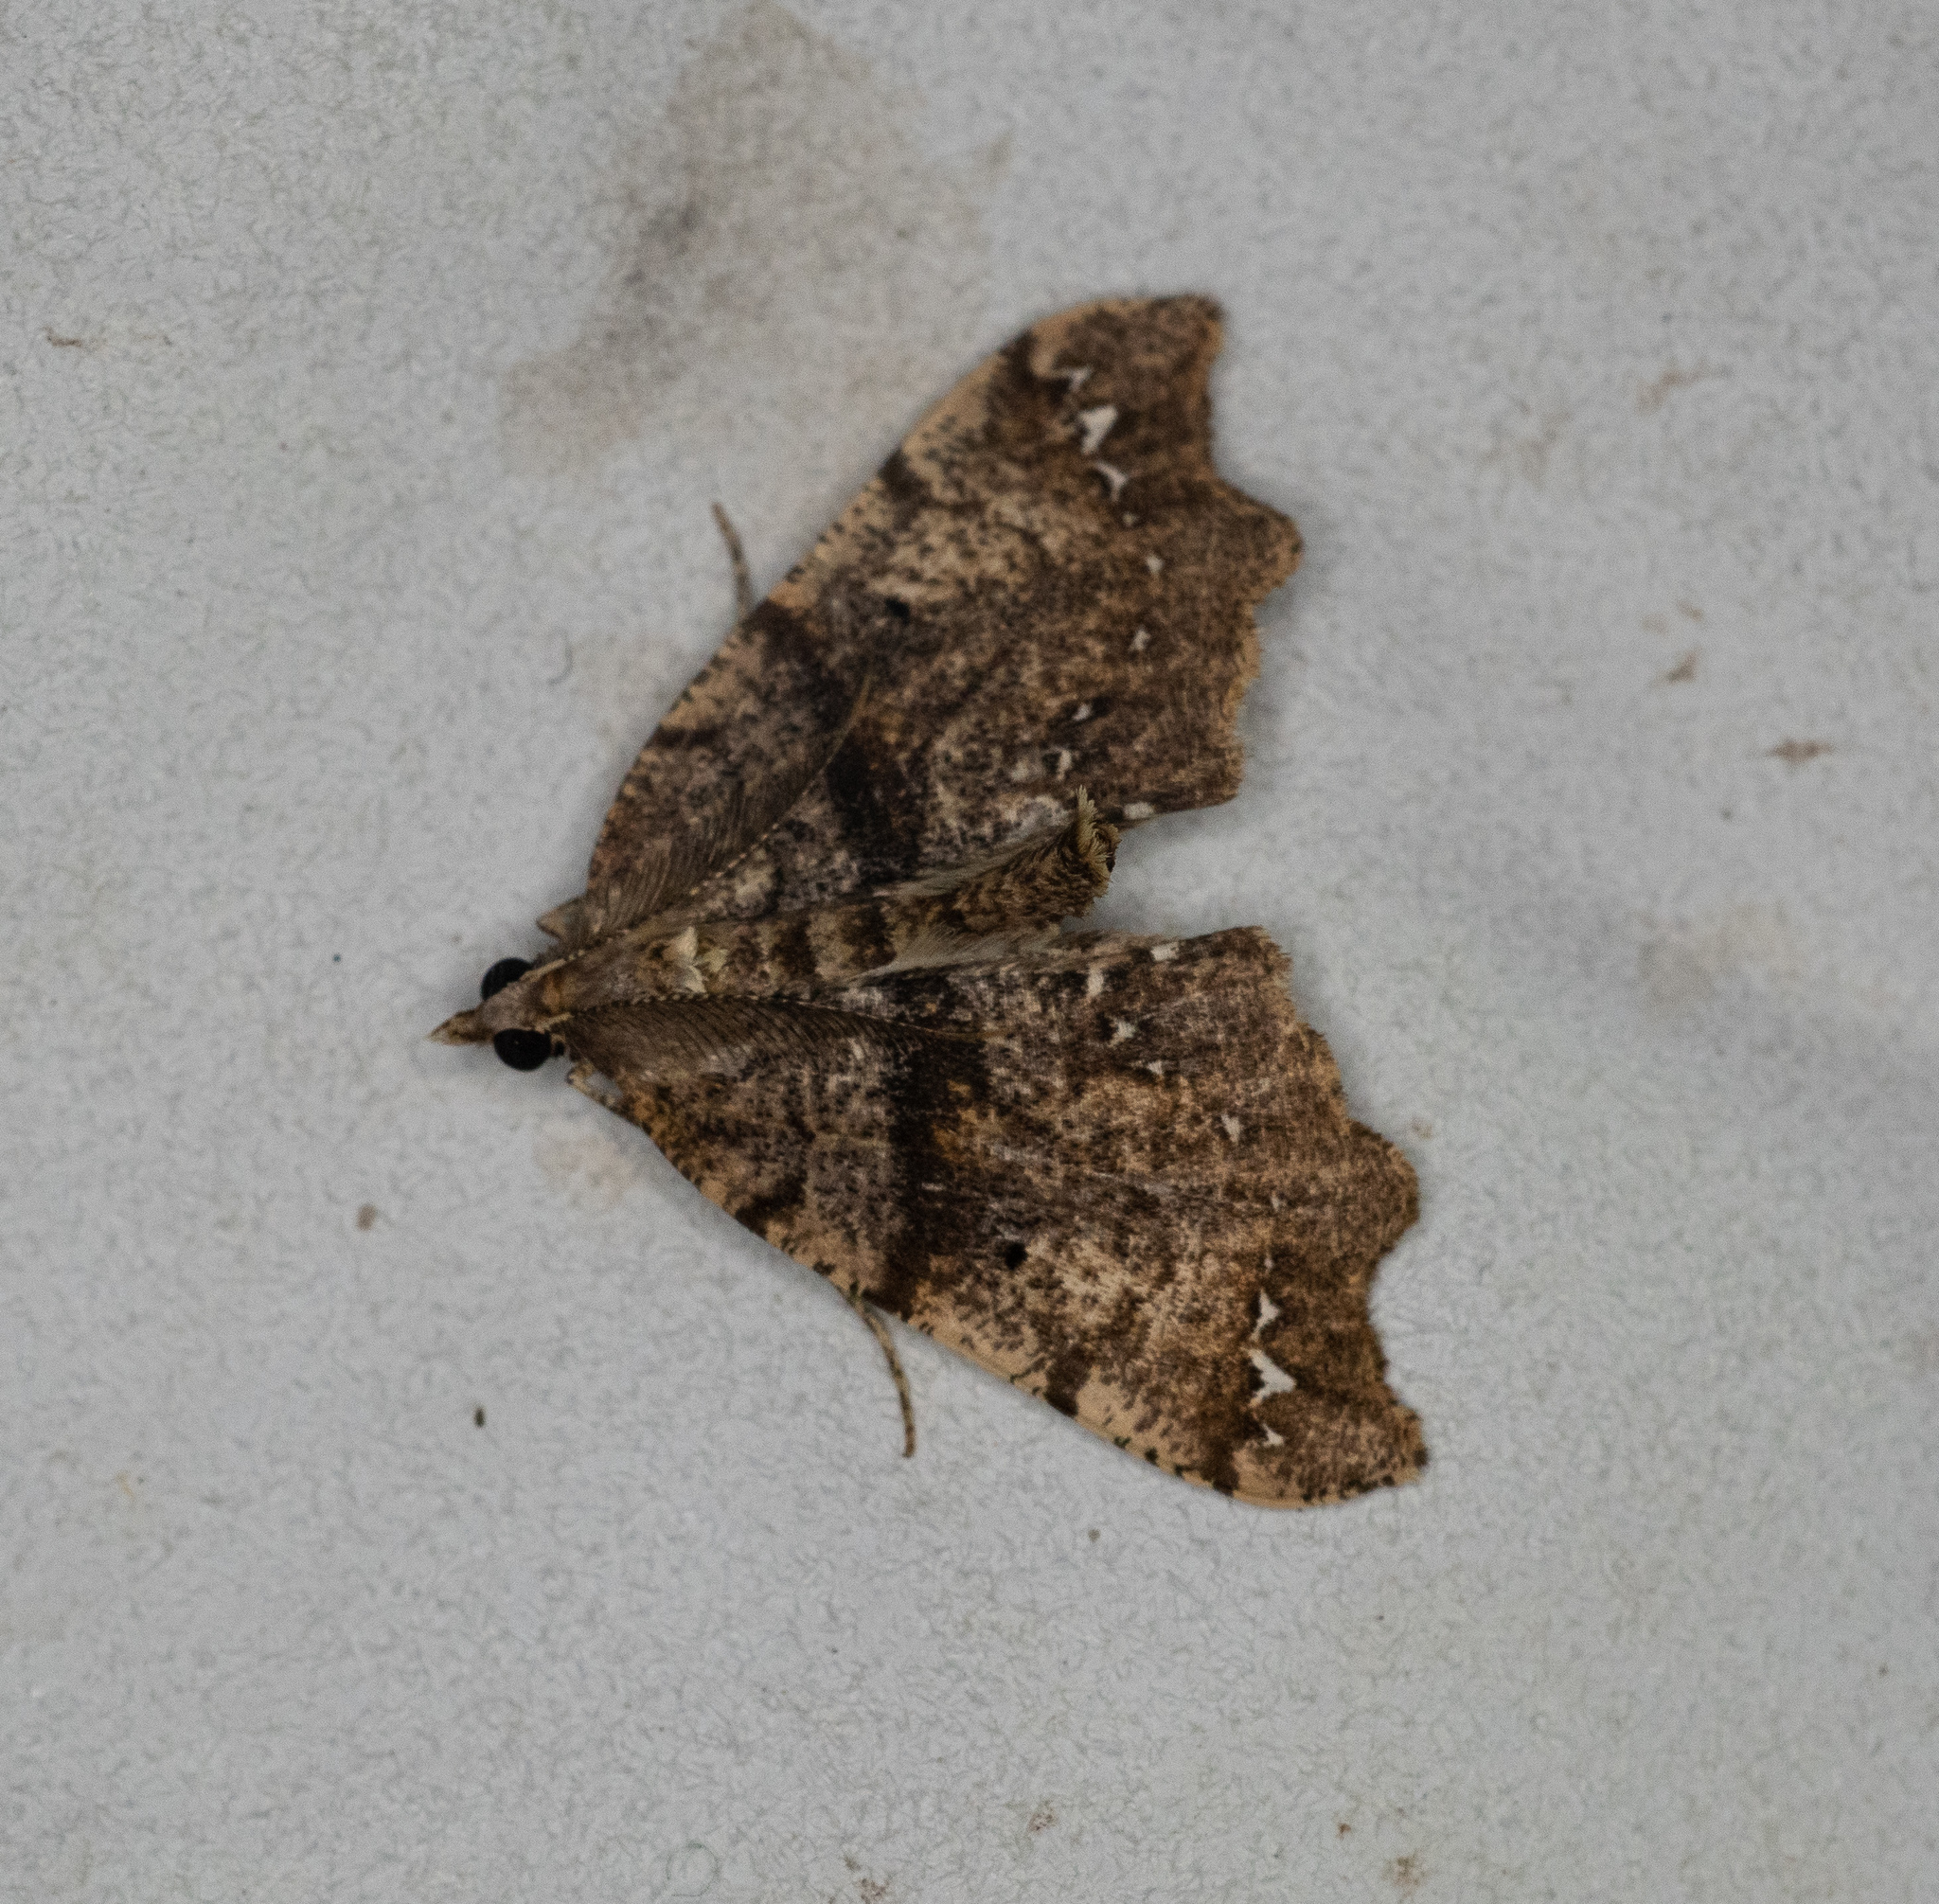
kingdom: Animalia
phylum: Arthropoda
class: Insecta
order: Lepidoptera
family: Geometridae
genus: Chalastra
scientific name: Chalastra pellurgata
